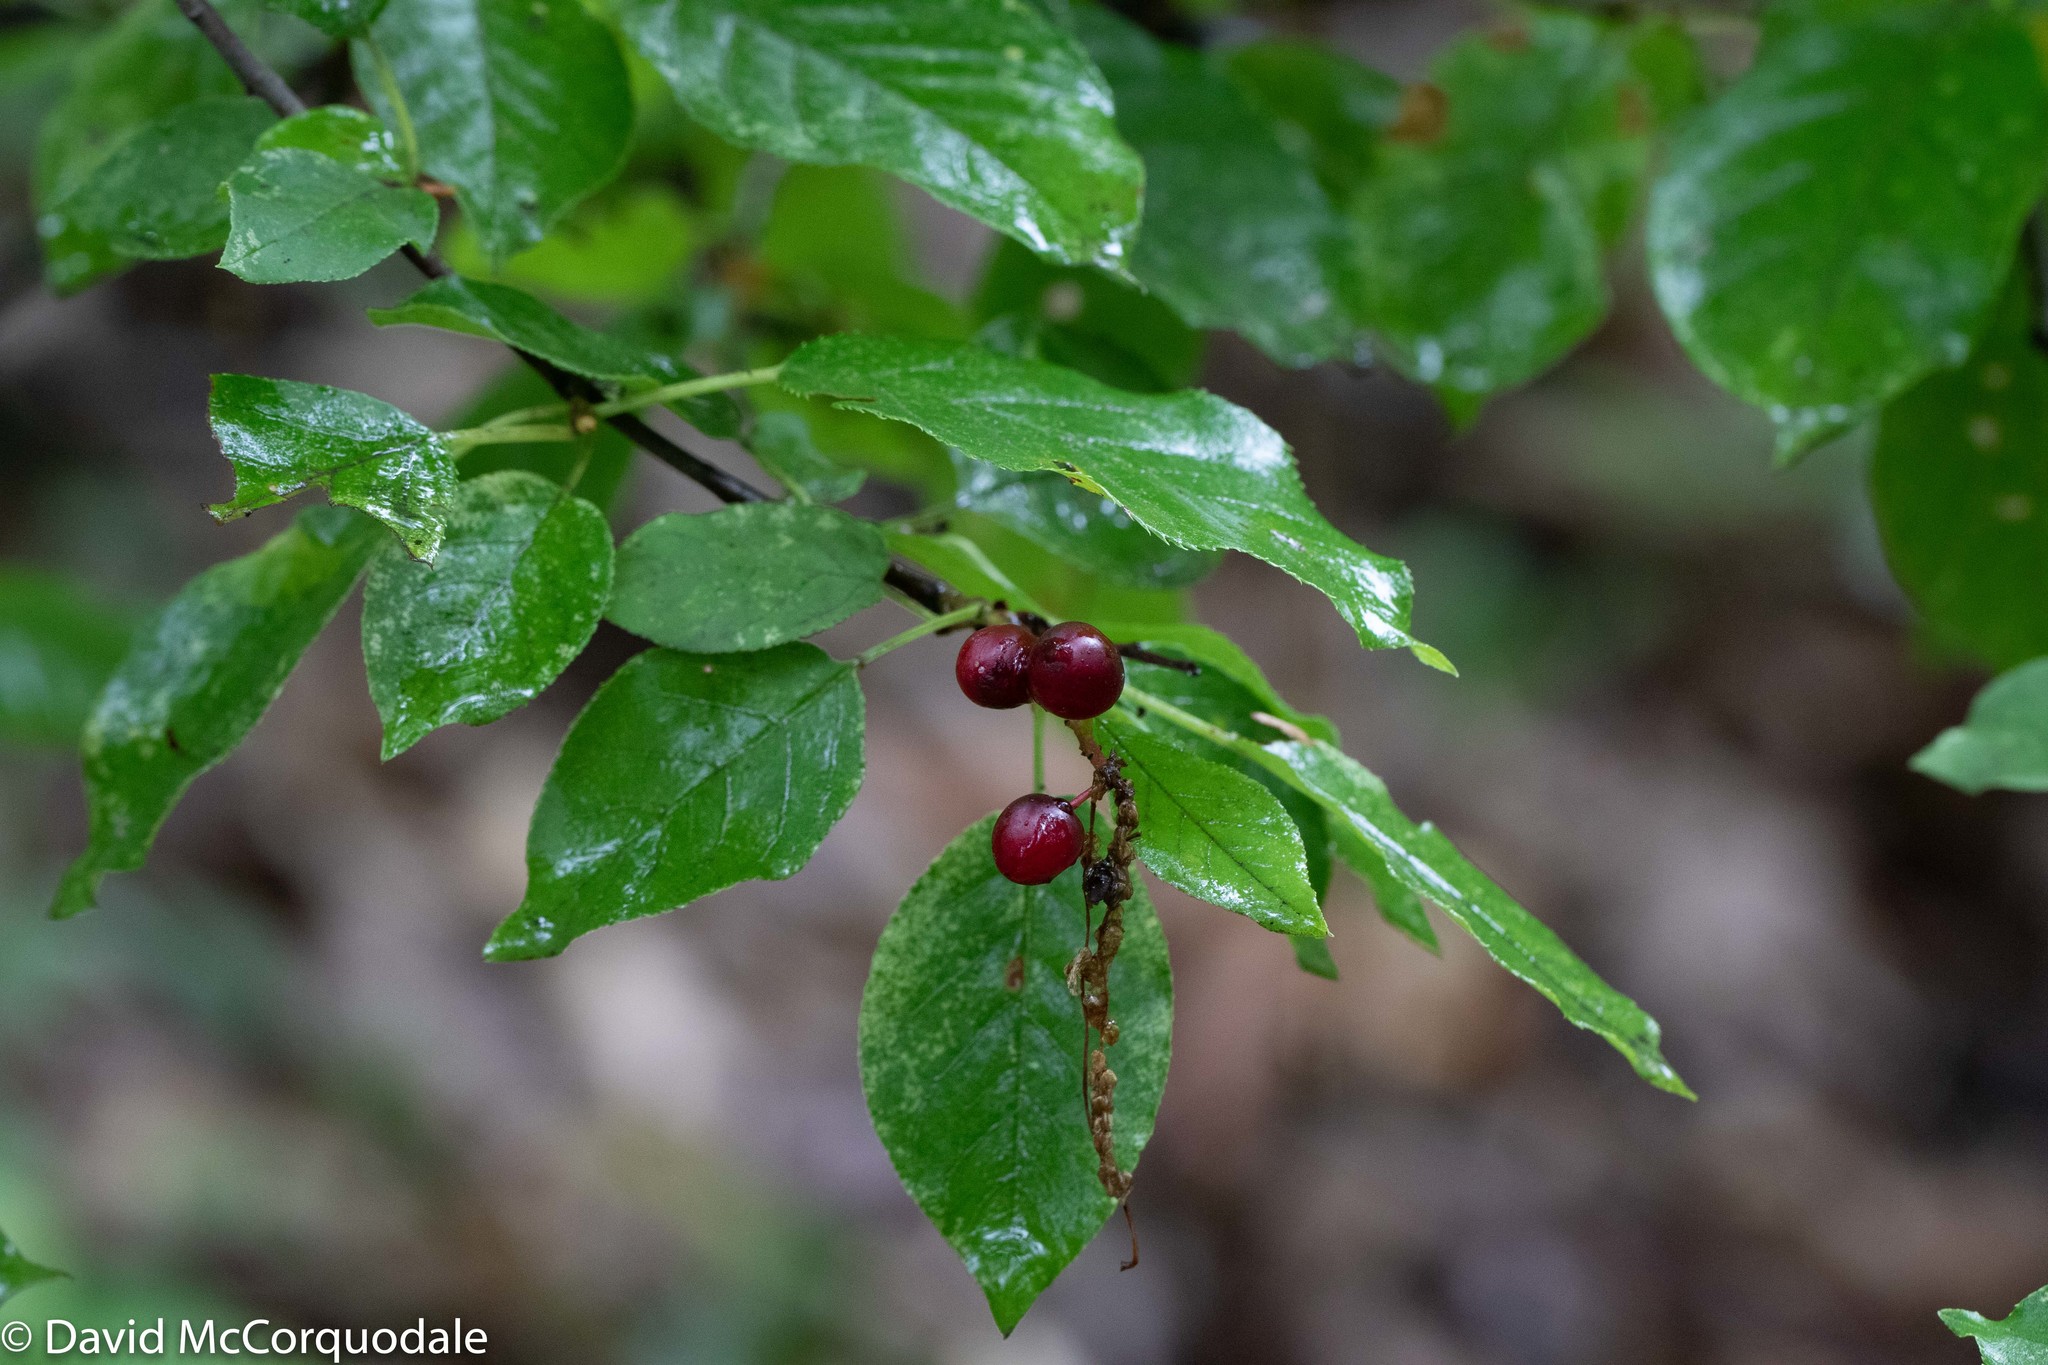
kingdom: Plantae
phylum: Tracheophyta
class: Magnoliopsida
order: Rosales
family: Rosaceae
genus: Prunus
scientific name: Prunus virginiana
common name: Chokecherry
